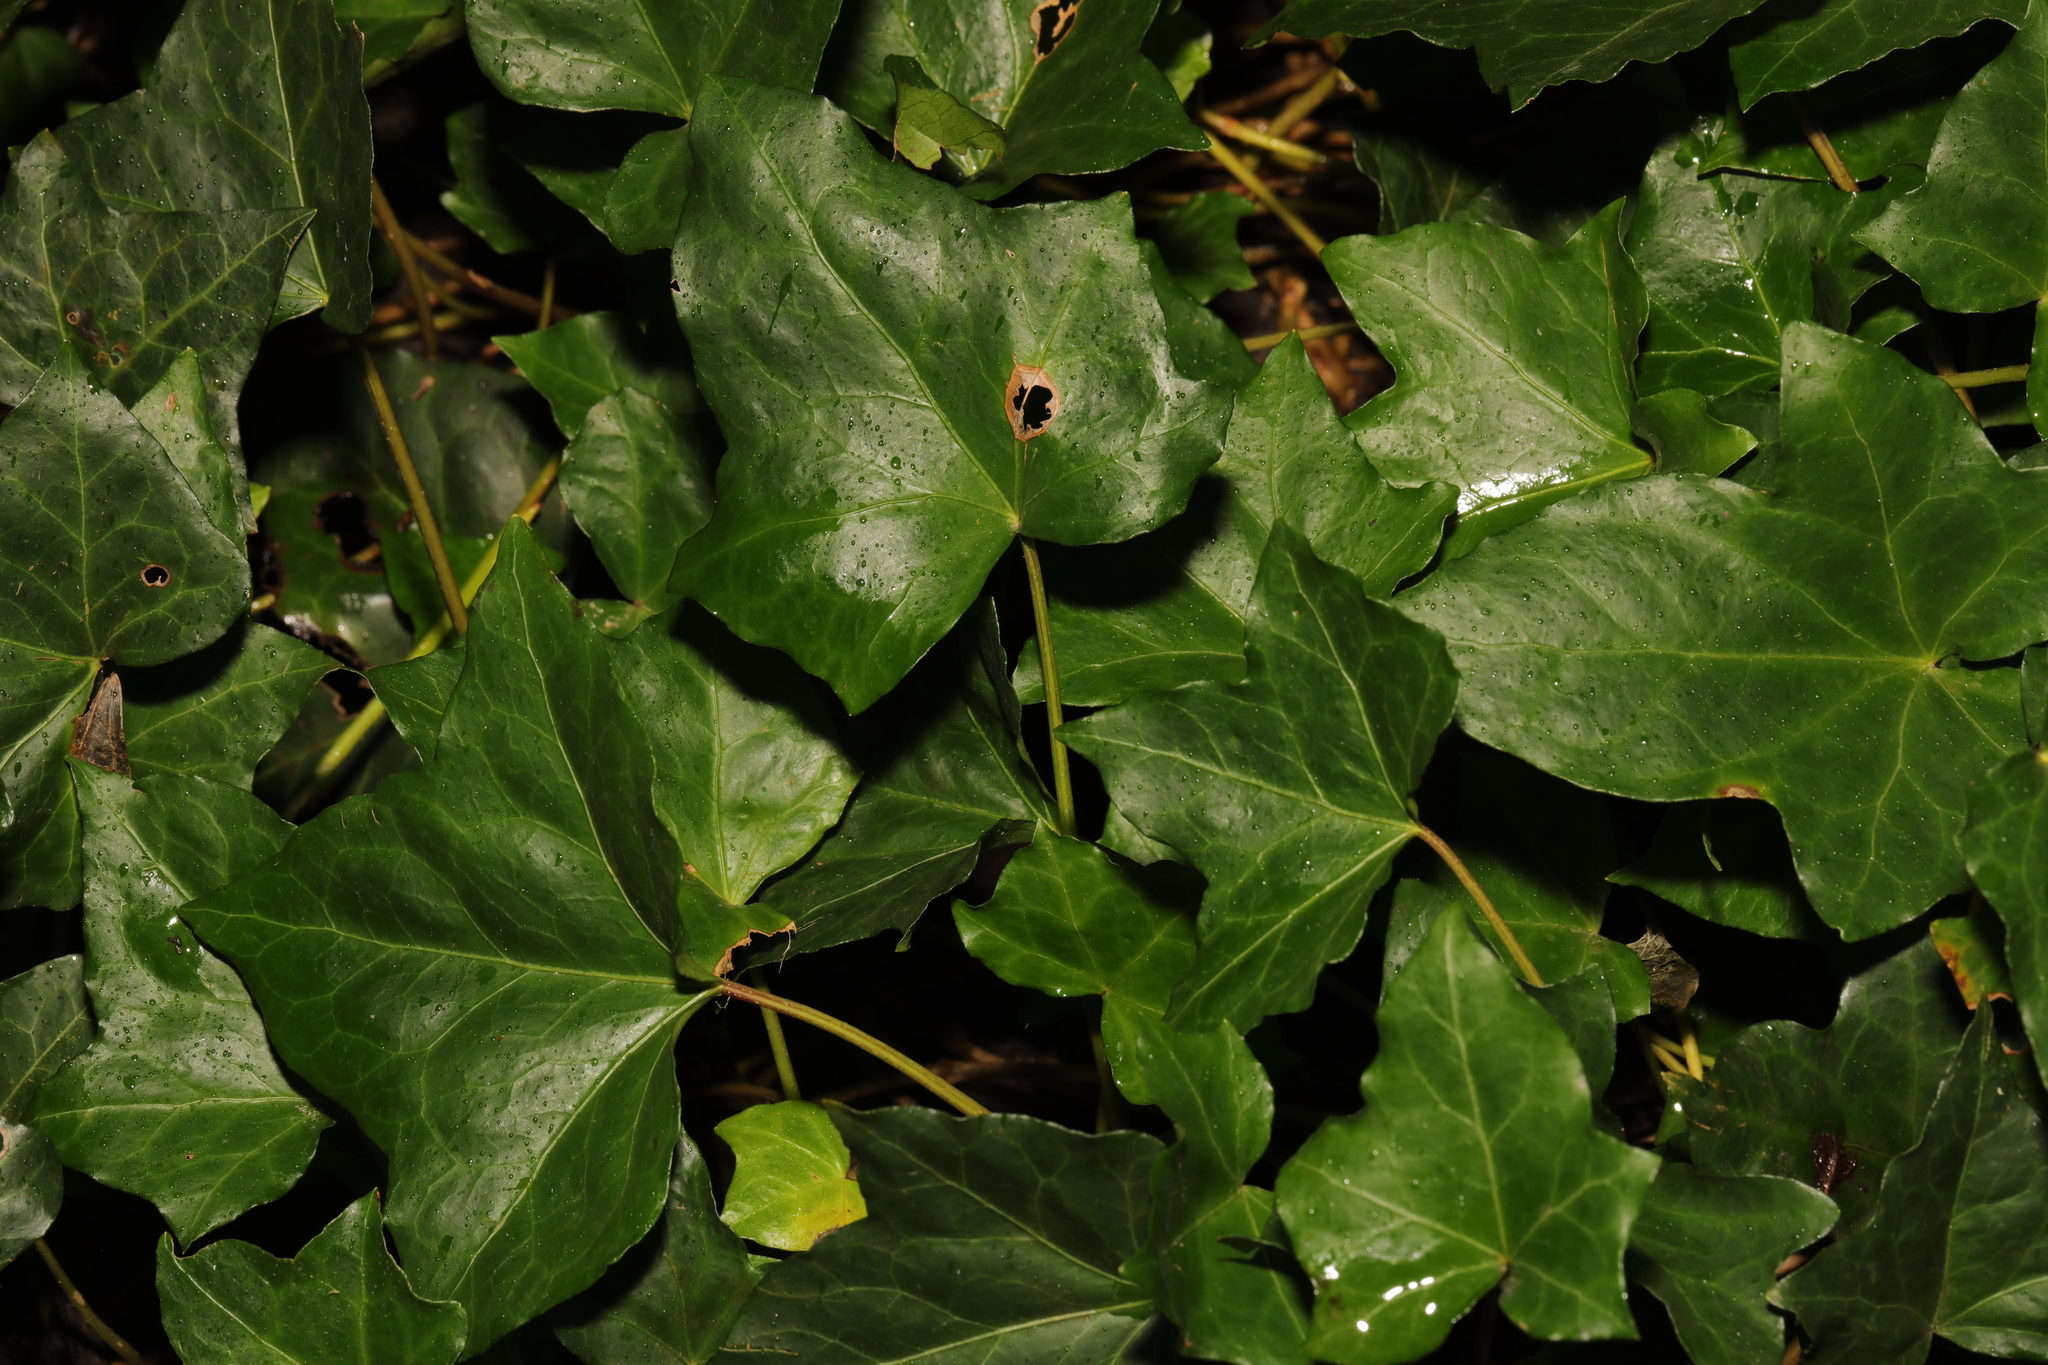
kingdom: Plantae
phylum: Tracheophyta
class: Magnoliopsida
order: Apiales
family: Araliaceae
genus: Hedera
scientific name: Hedera helix
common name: Ivy
